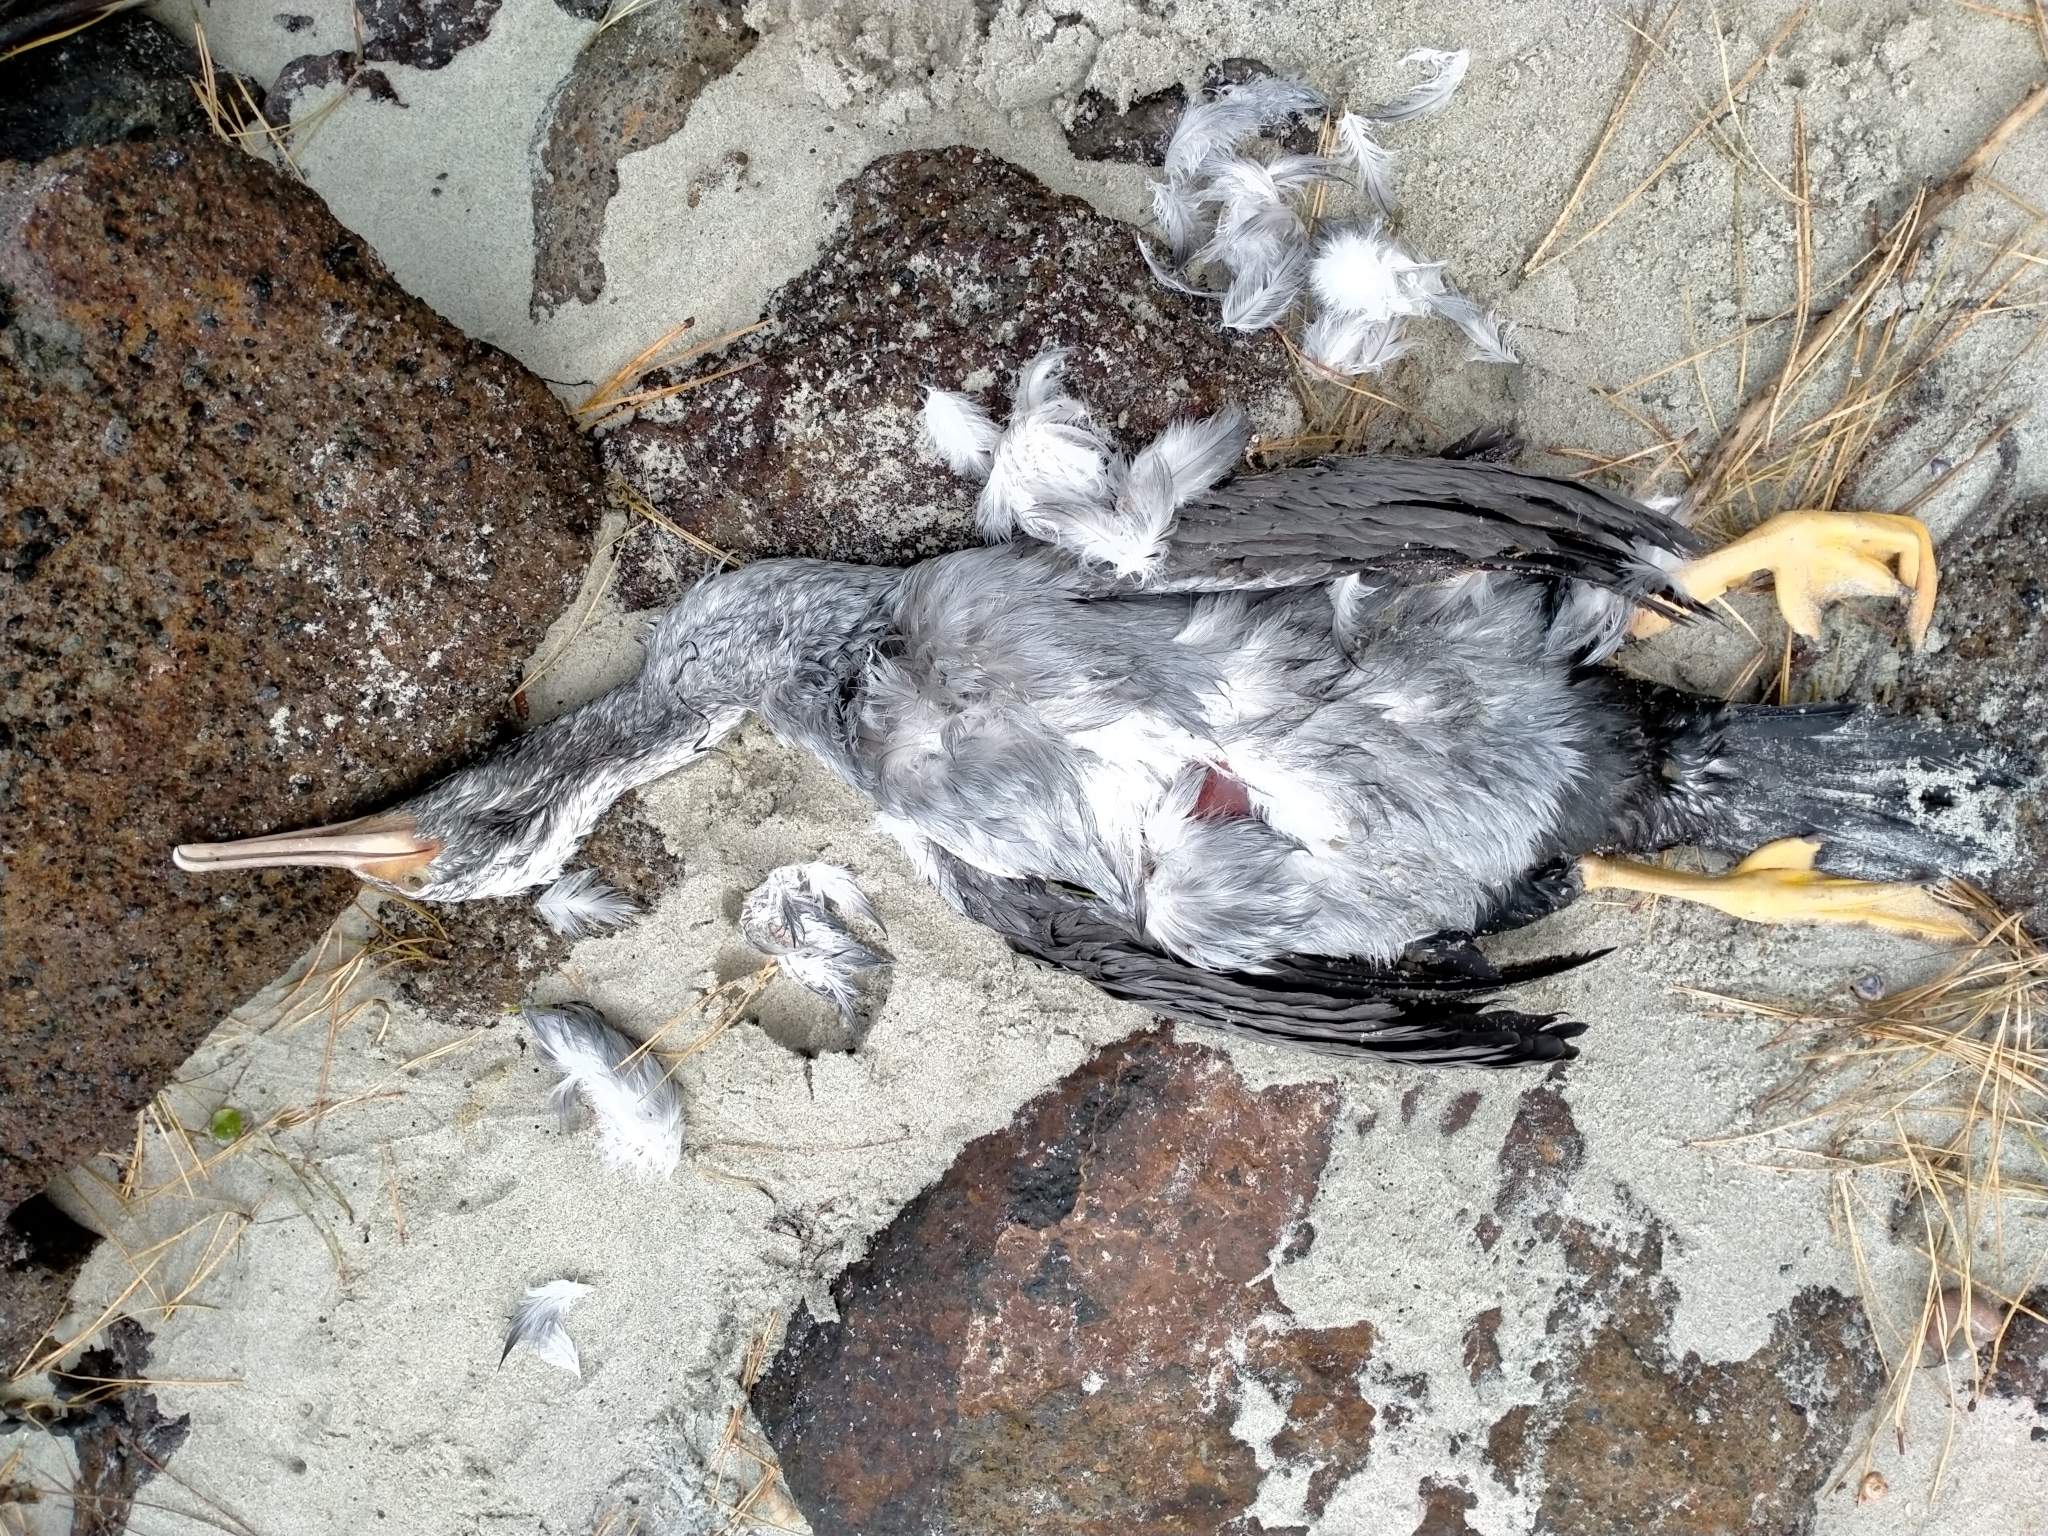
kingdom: Animalia
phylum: Chordata
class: Aves
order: Suliformes
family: Phalacrocoracidae
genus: Phalacrocorax
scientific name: Phalacrocorax punctatus
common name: Spotted shag
